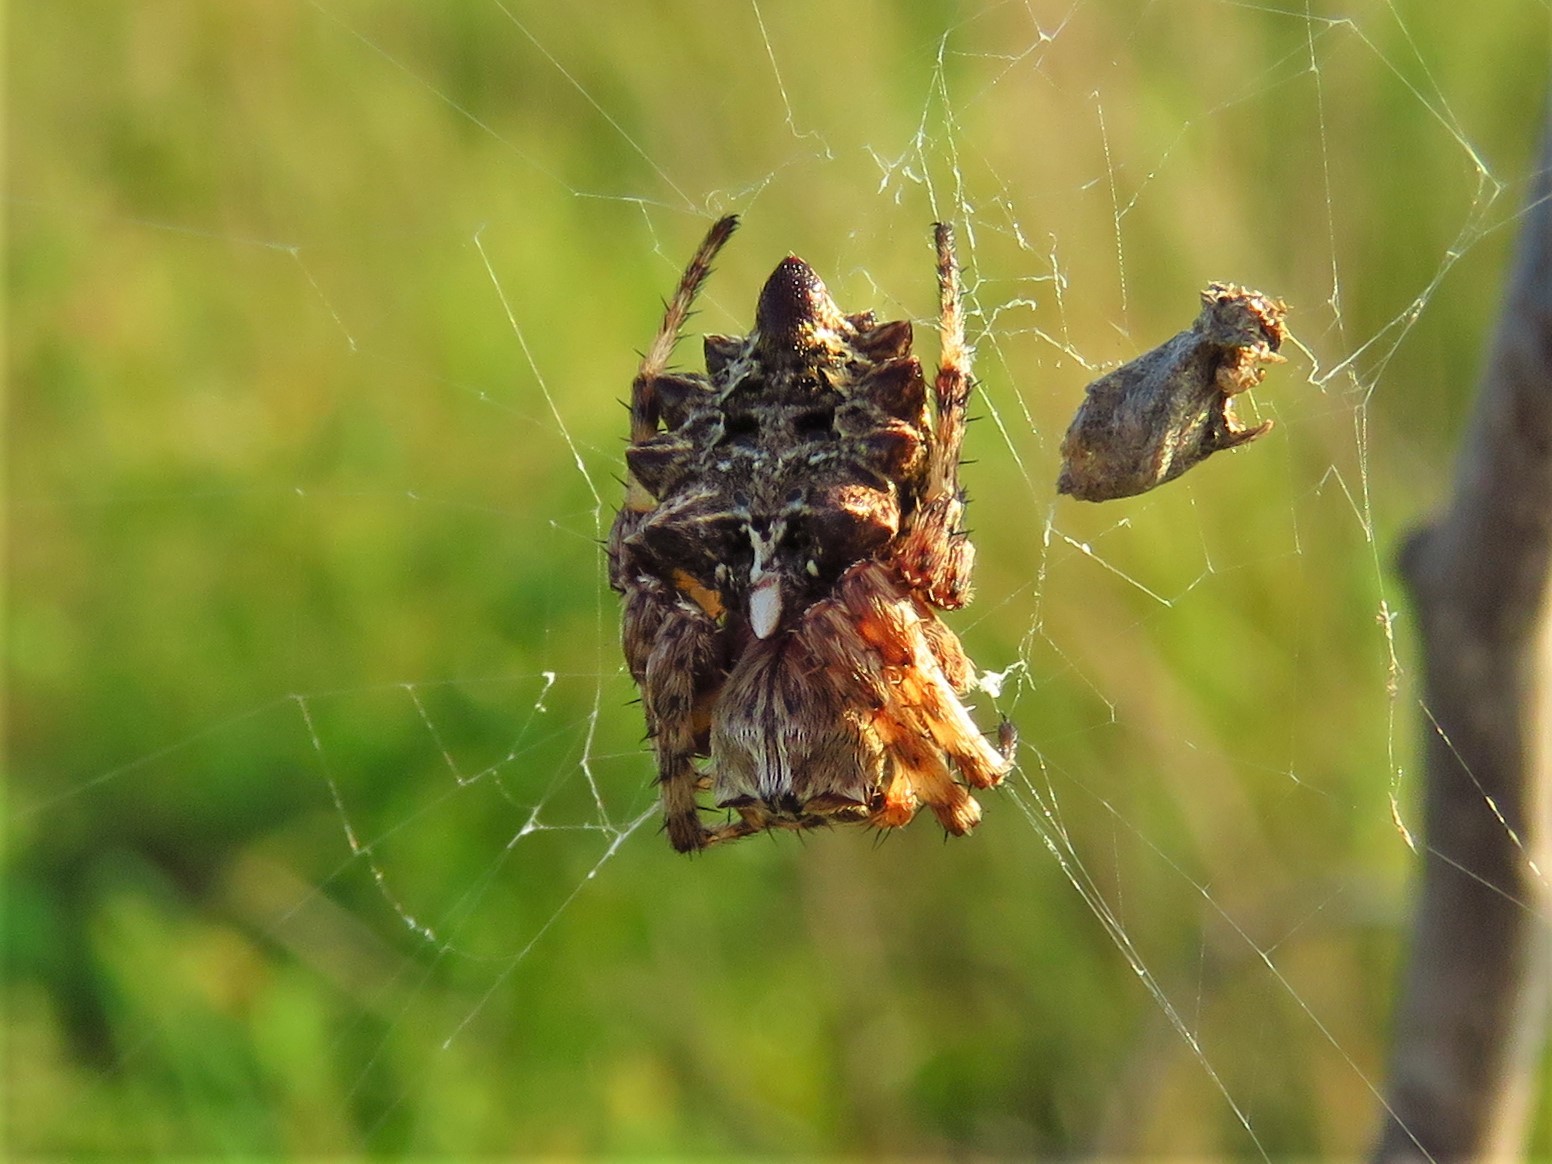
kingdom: Animalia
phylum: Arthropoda
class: Arachnida
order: Araneae
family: Araneidae
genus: Acanthepeira
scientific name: Acanthepeira stellata
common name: Starbellied orbweaver
